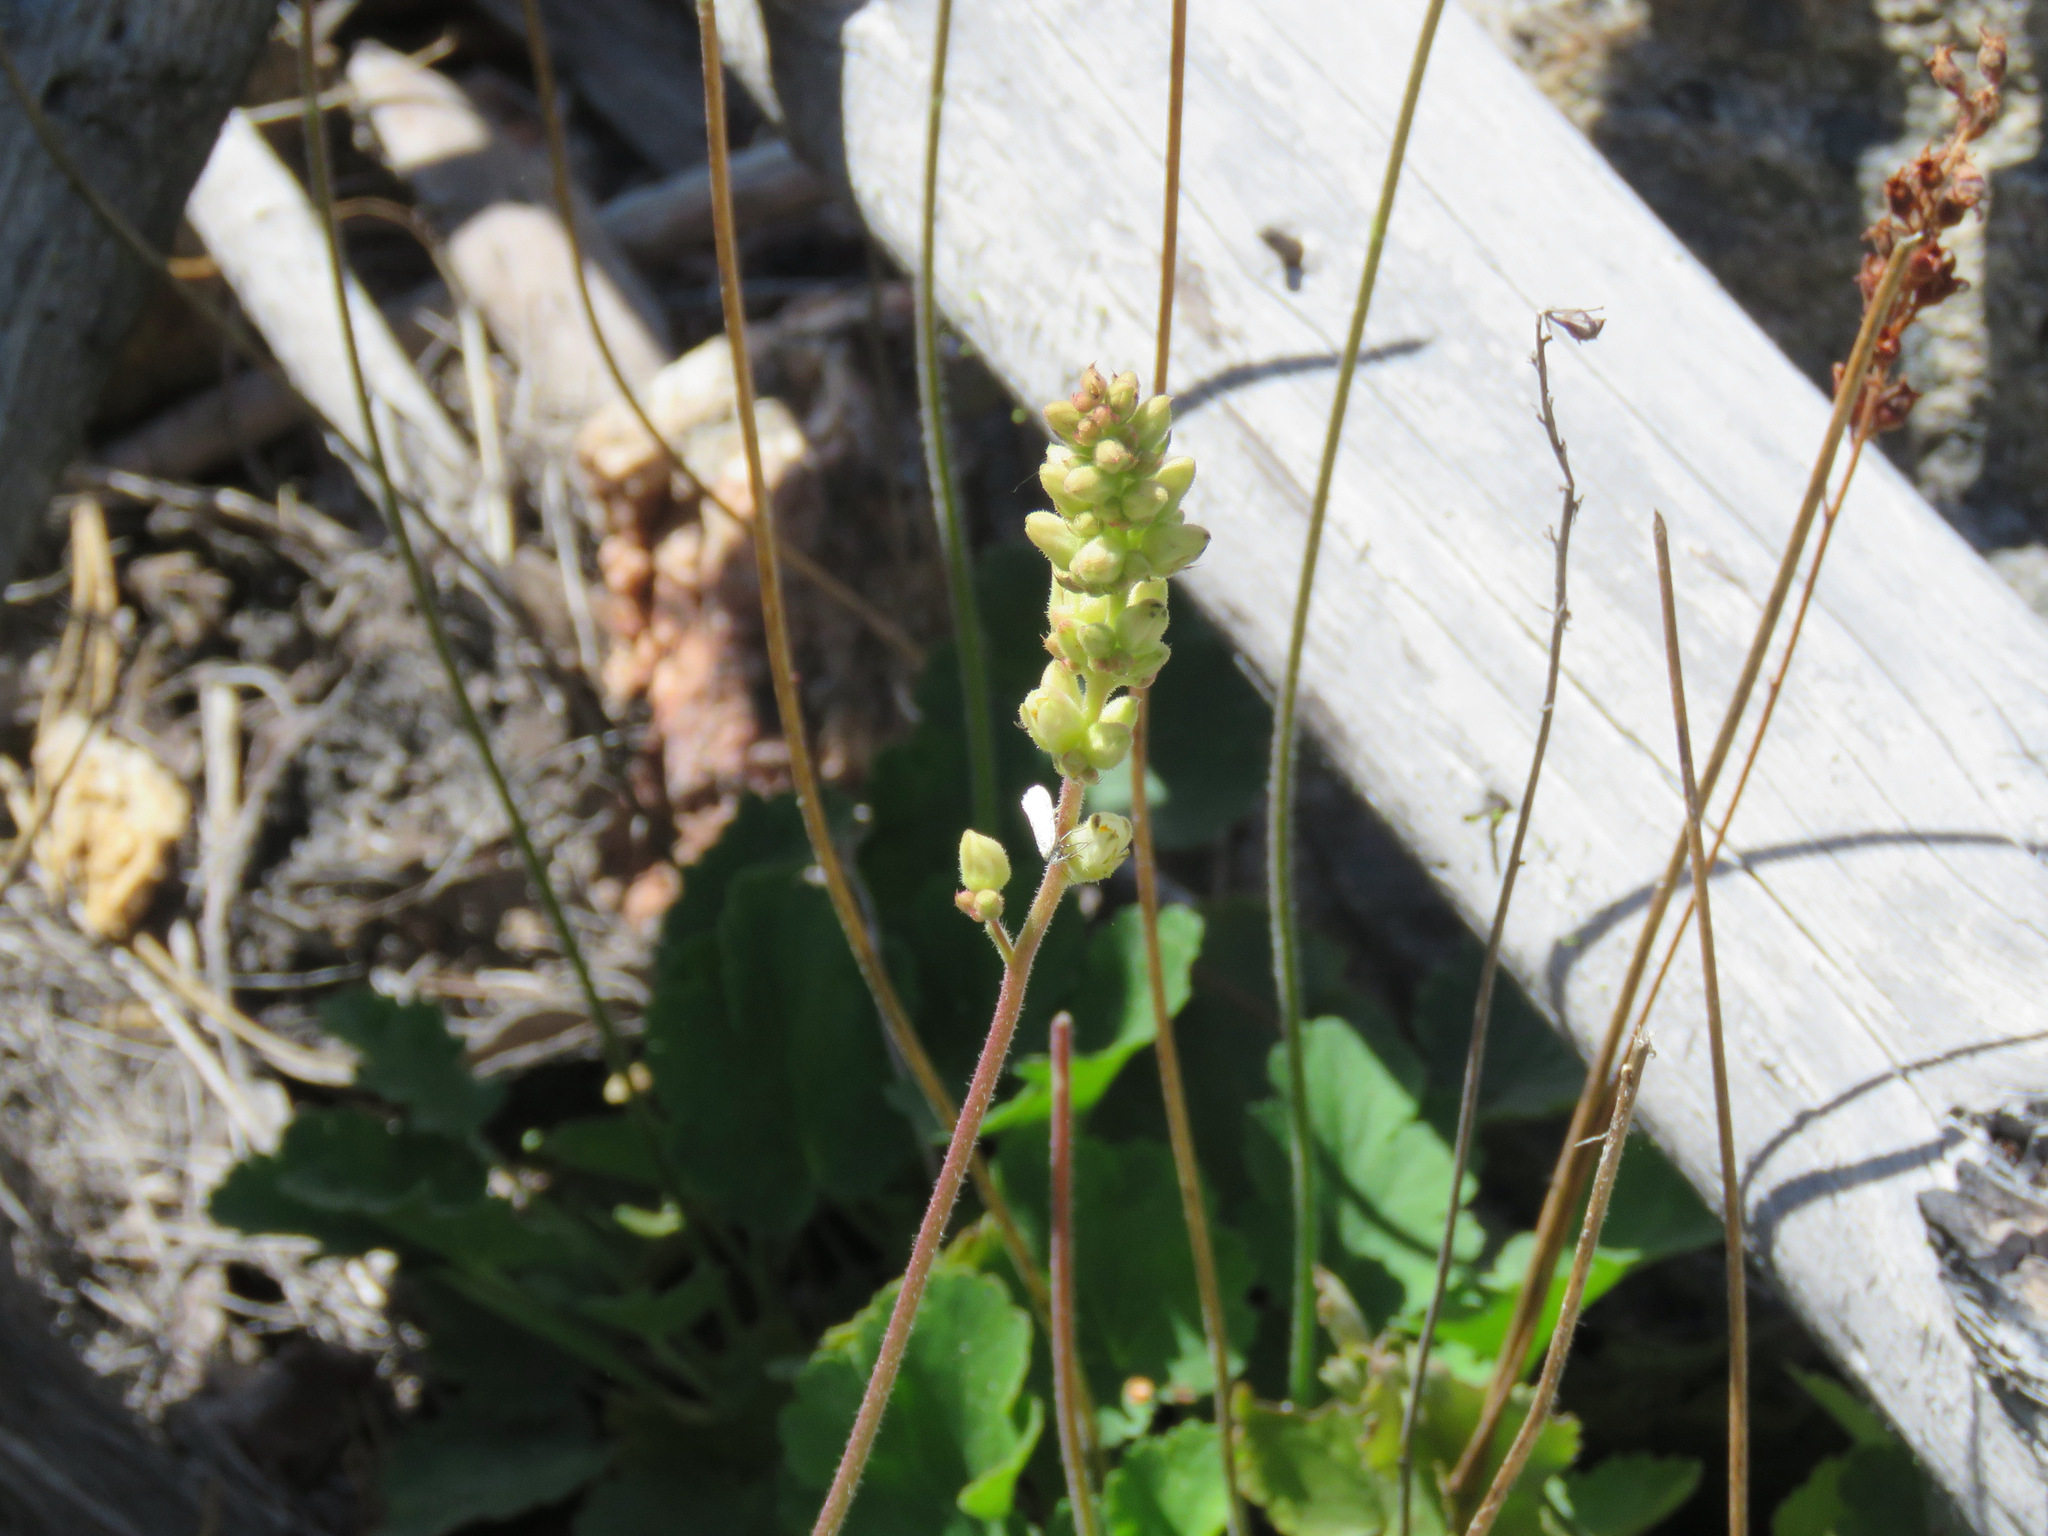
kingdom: Plantae
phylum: Tracheophyta
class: Magnoliopsida
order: Saxifragales
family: Saxifragaceae
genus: Heuchera
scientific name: Heuchera cylindrica
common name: Mat alumroot
